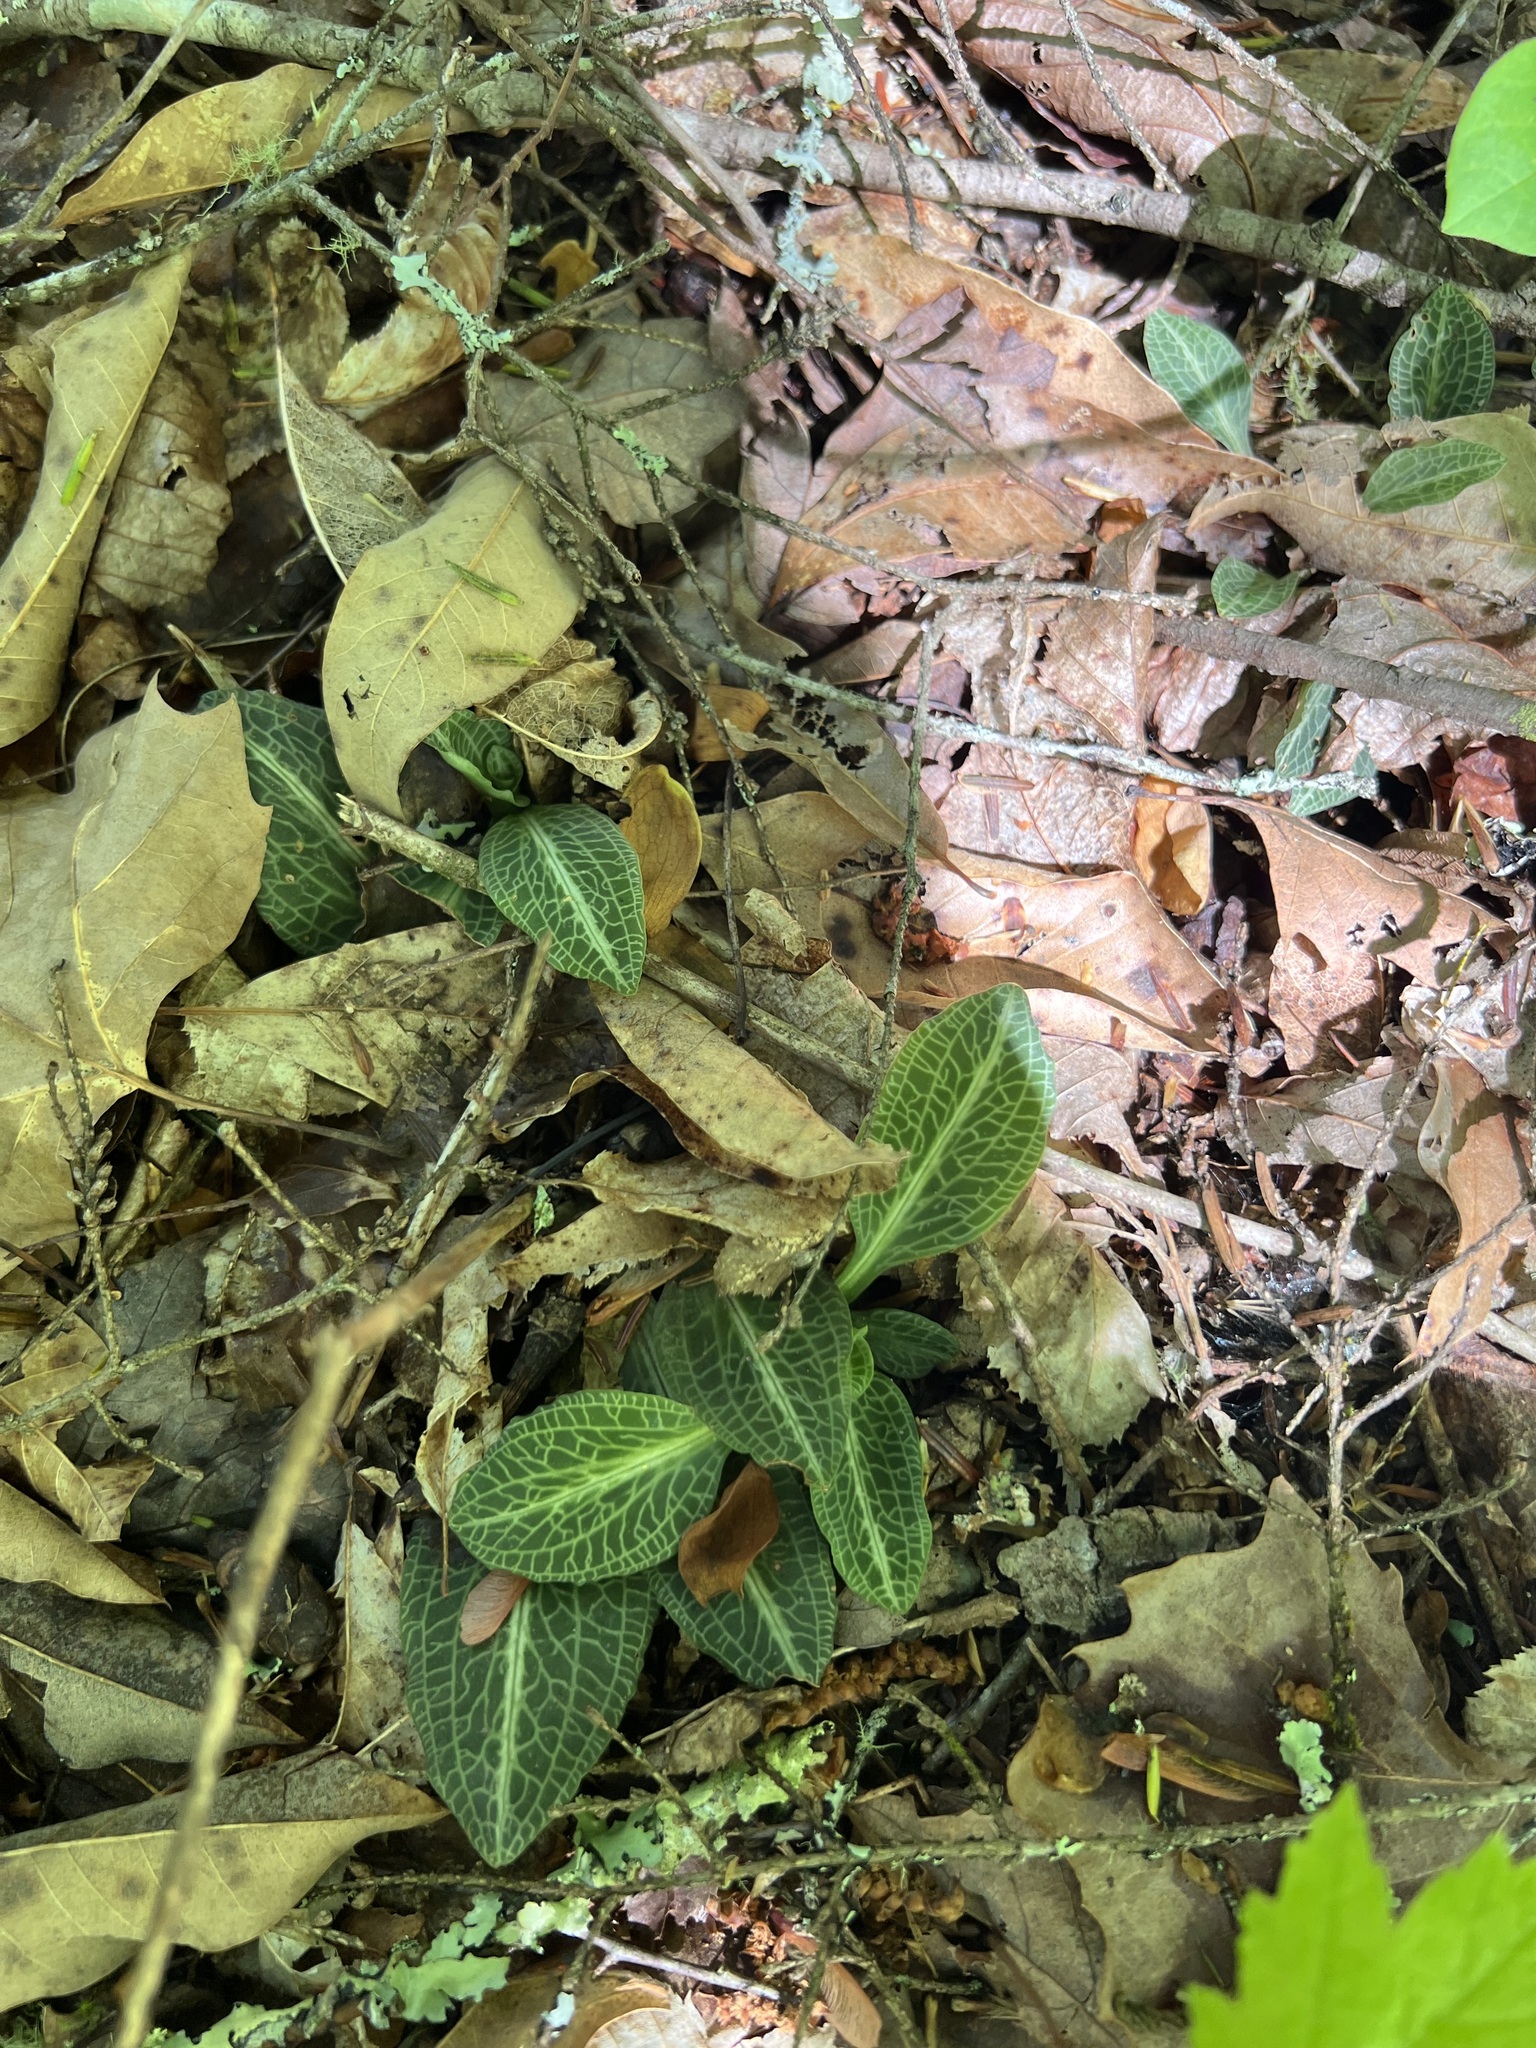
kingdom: Plantae
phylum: Tracheophyta
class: Liliopsida
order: Asparagales
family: Orchidaceae
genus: Goodyera
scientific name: Goodyera pubescens
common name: Downy rattlesnake-plantain
